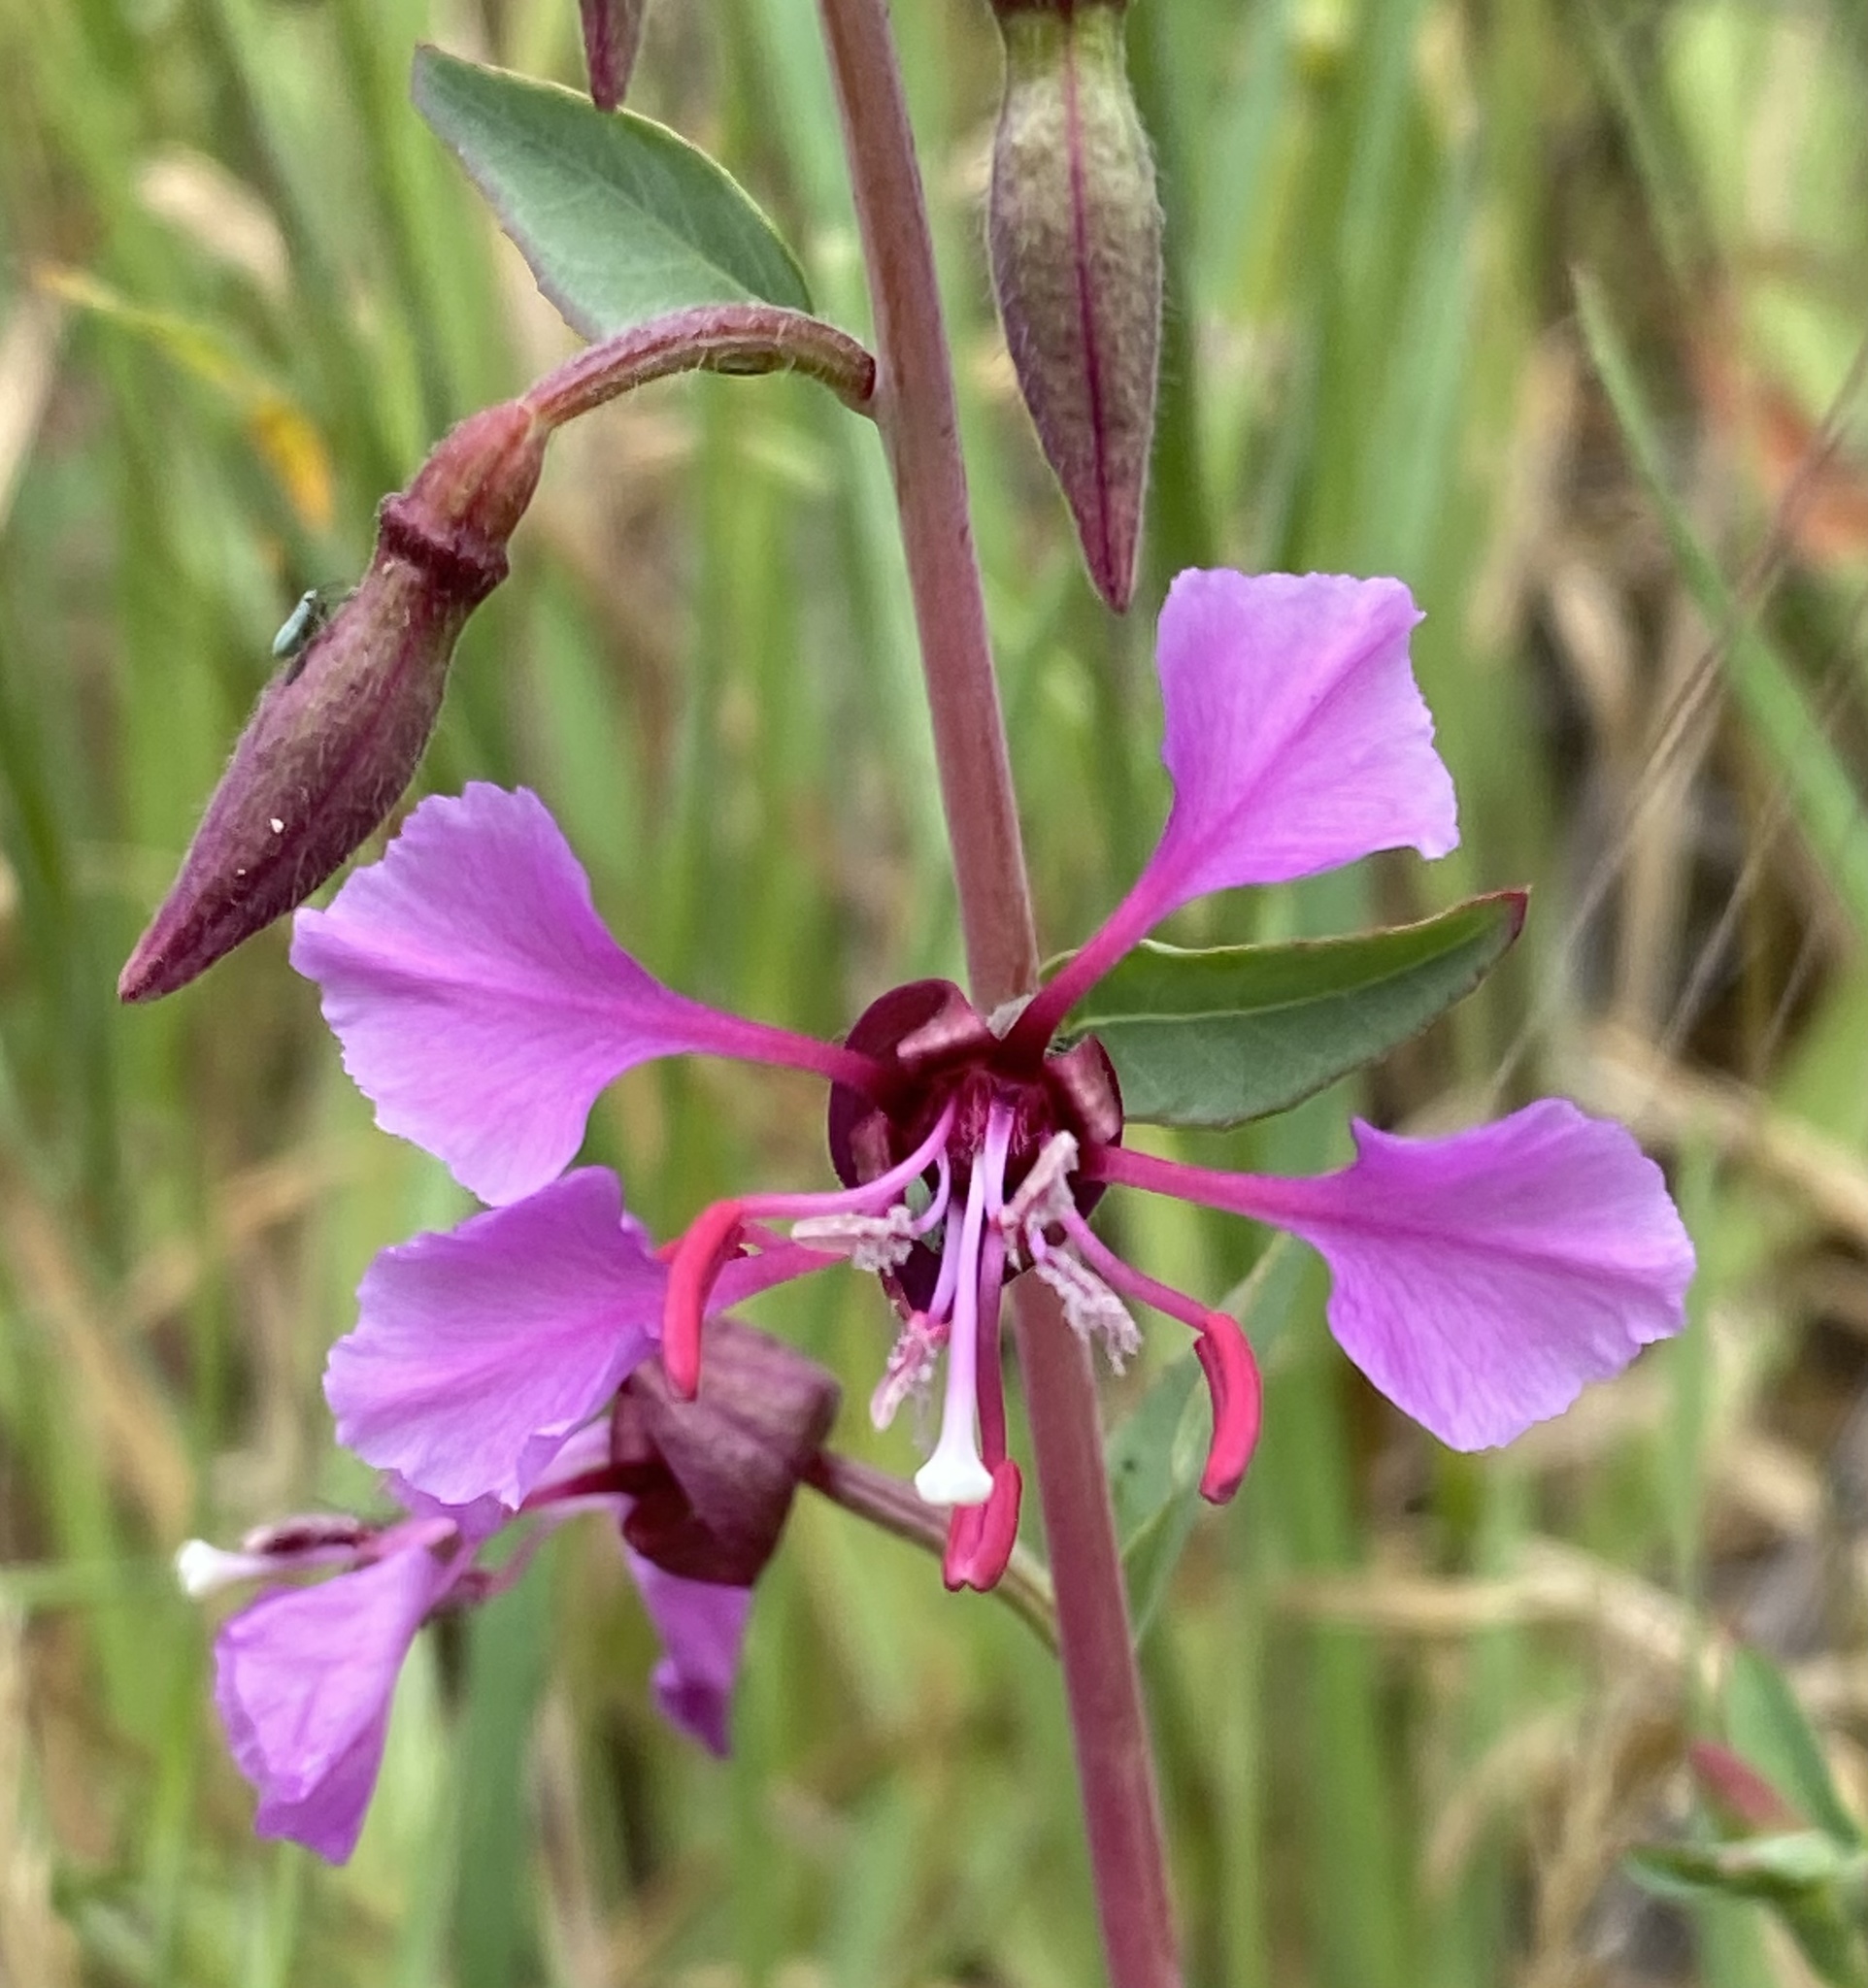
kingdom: Plantae
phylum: Tracheophyta
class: Magnoliopsida
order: Myrtales
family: Onagraceae
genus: Clarkia
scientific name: Clarkia unguiculata
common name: Clarkia
